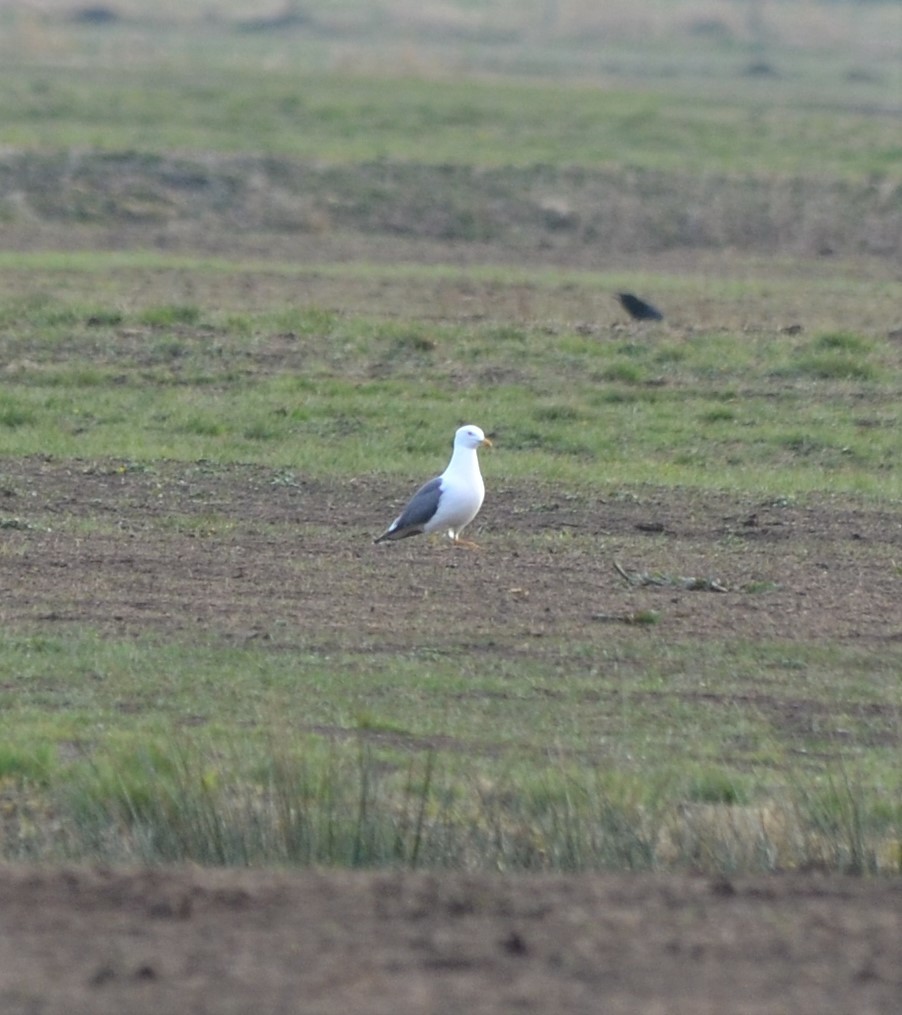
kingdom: Animalia
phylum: Chordata
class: Aves
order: Charadriiformes
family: Laridae
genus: Larus
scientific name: Larus fuscus
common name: Lesser black-backed gull
